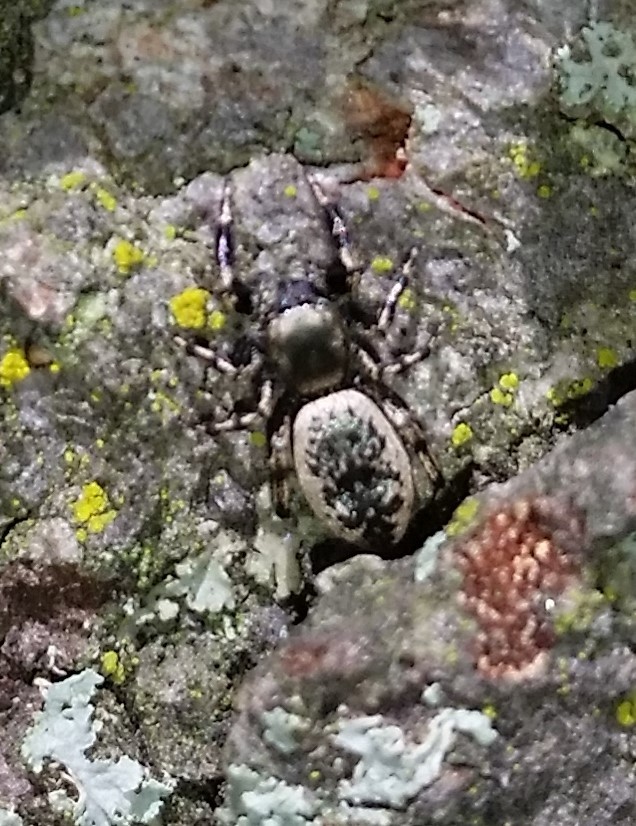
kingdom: Animalia
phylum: Arthropoda
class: Arachnida
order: Araneae
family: Salticidae
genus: Tutelina
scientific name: Tutelina harti
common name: Hart's jumping spider
